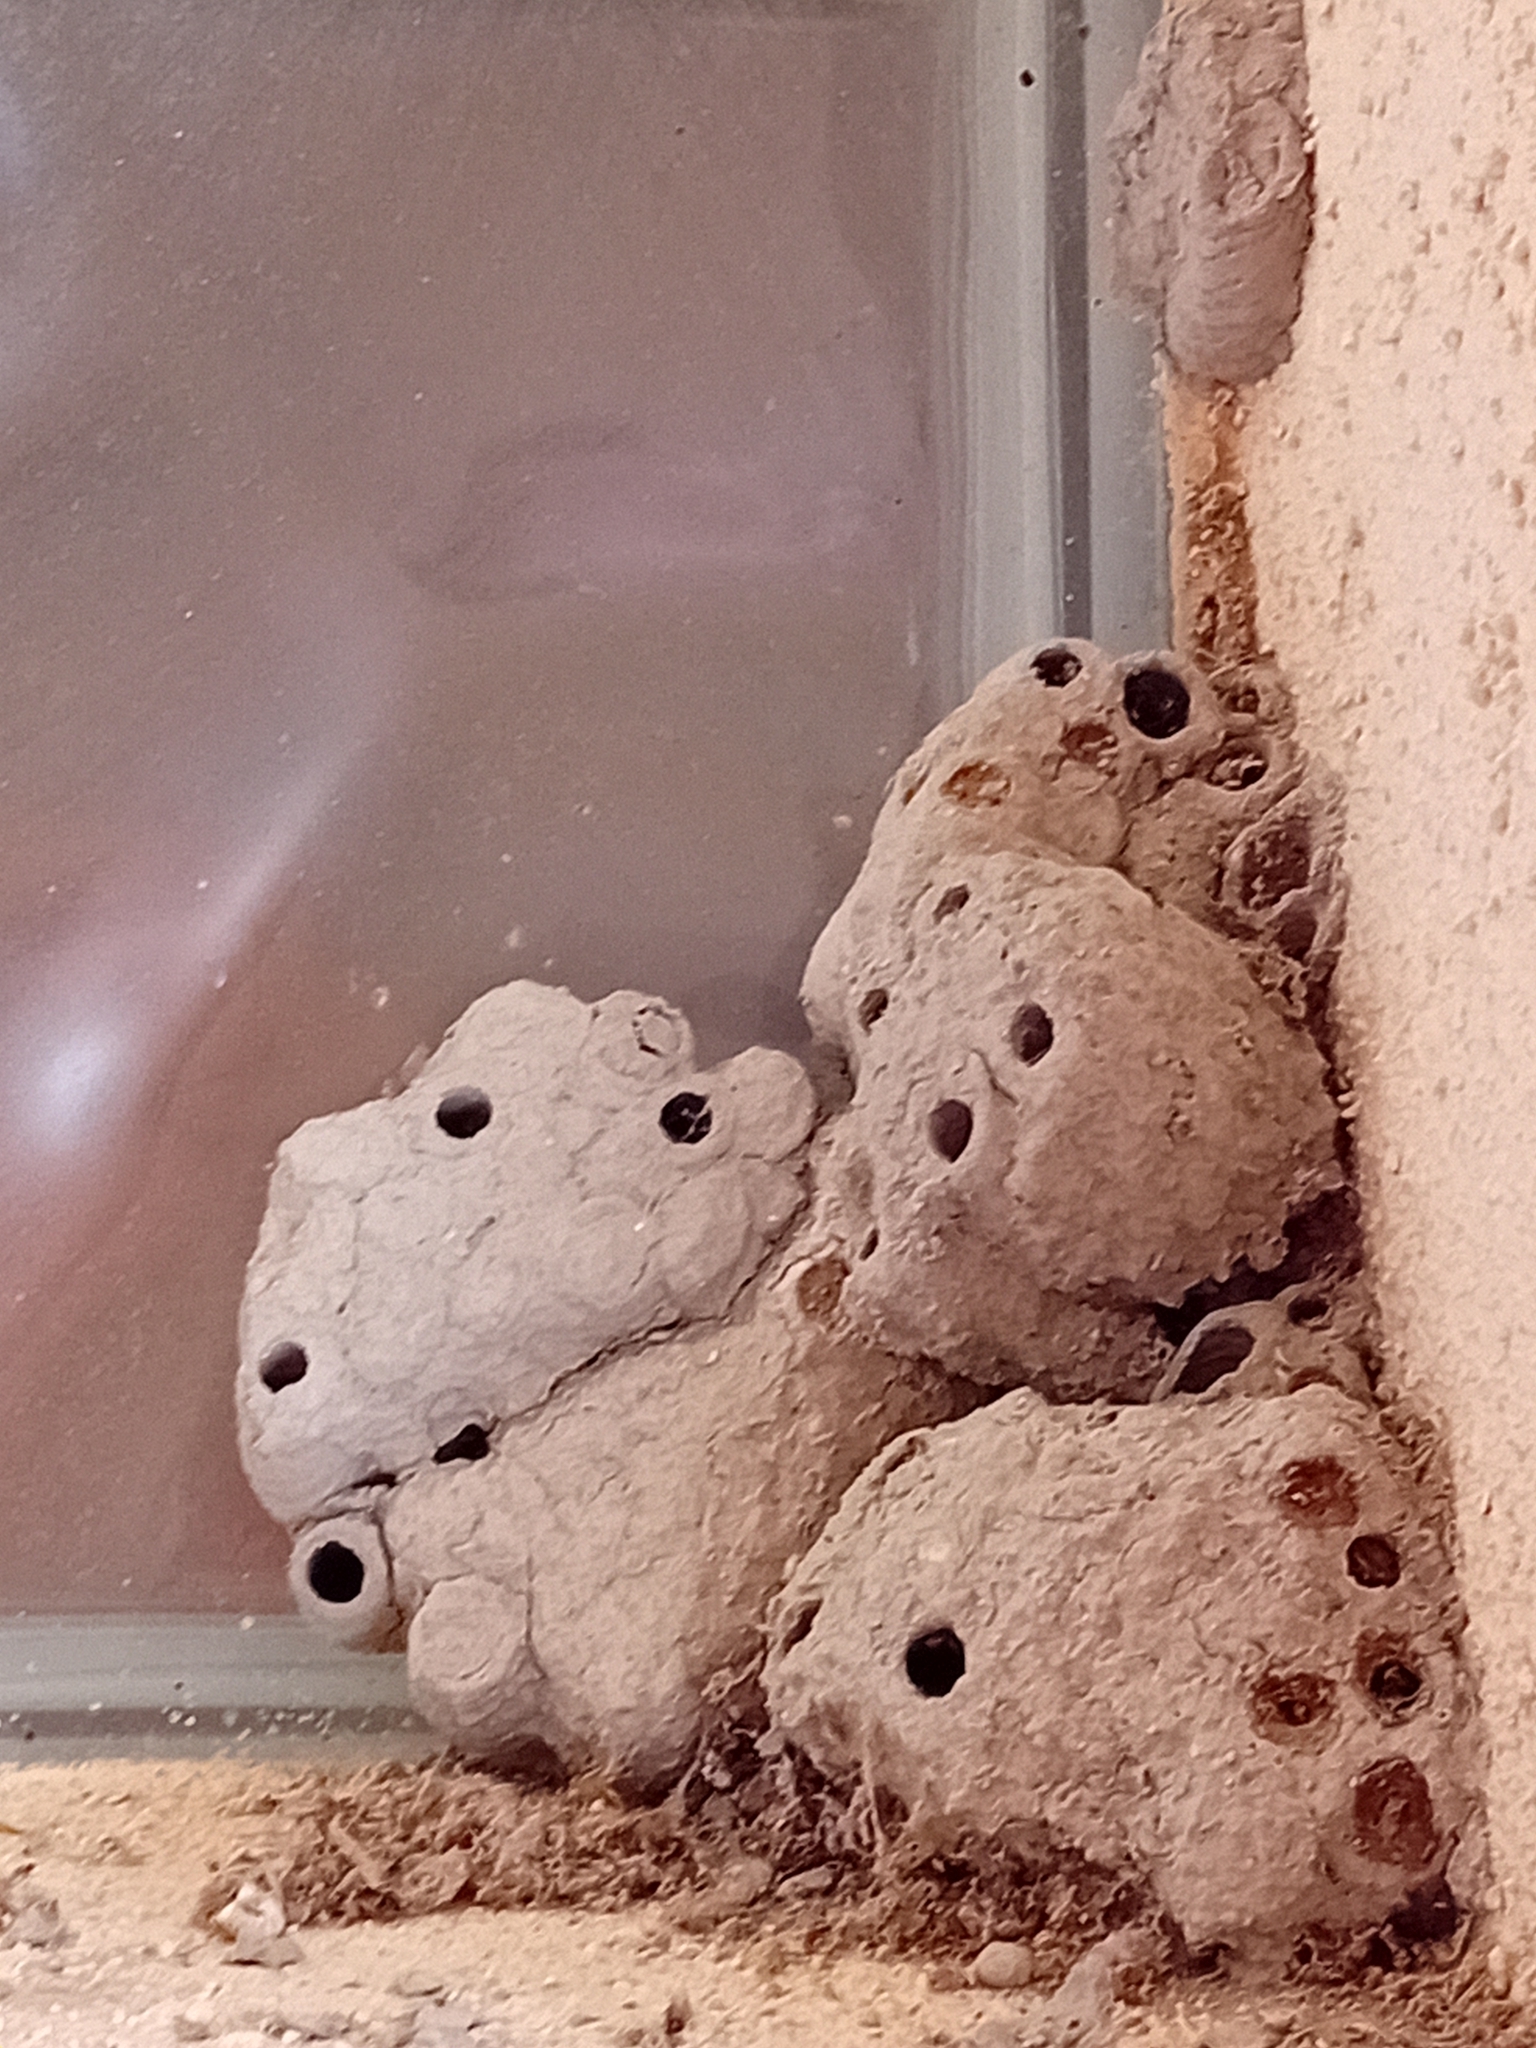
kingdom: Animalia
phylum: Arthropoda
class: Insecta
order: Hymenoptera
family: Sphecidae
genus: Sceliphron
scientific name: Sceliphron
